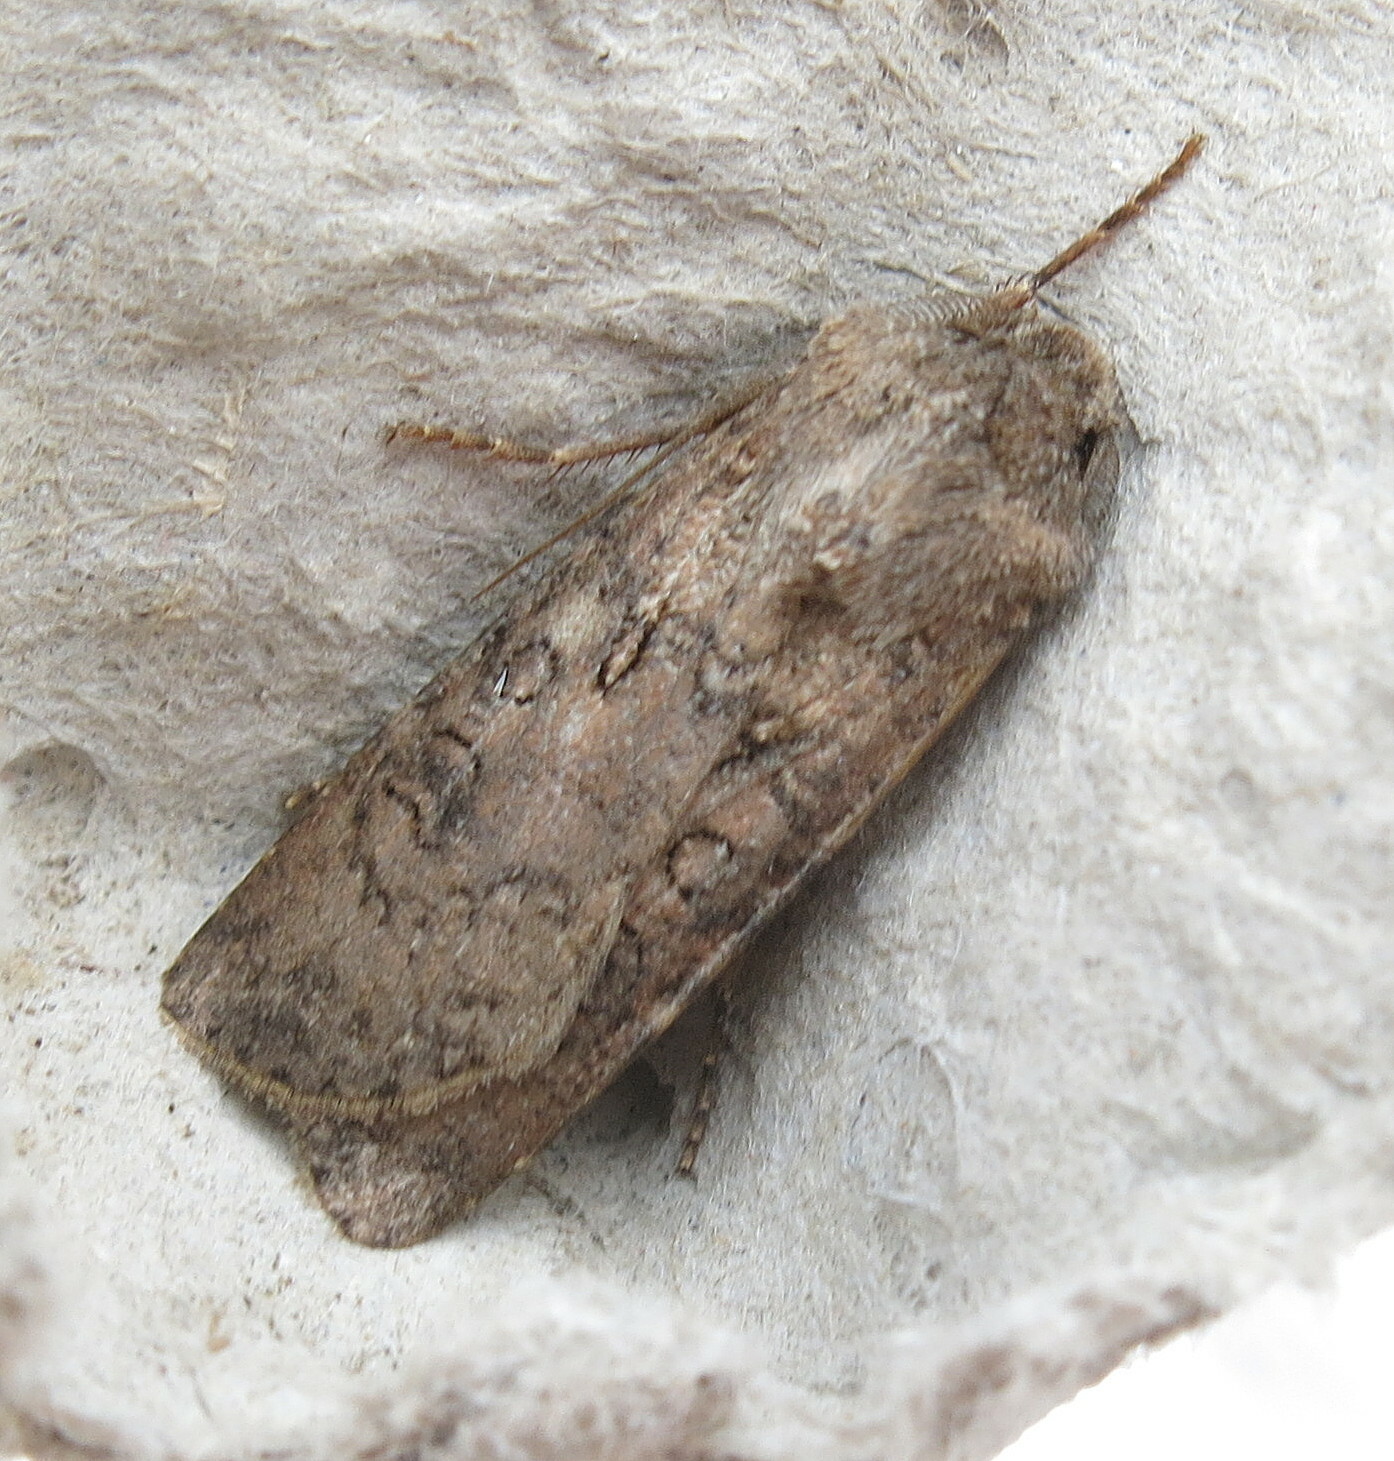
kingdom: Animalia
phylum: Arthropoda
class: Insecta
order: Lepidoptera
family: Noctuidae
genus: Agrotis
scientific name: Agrotis segetum
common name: Turnip moth
